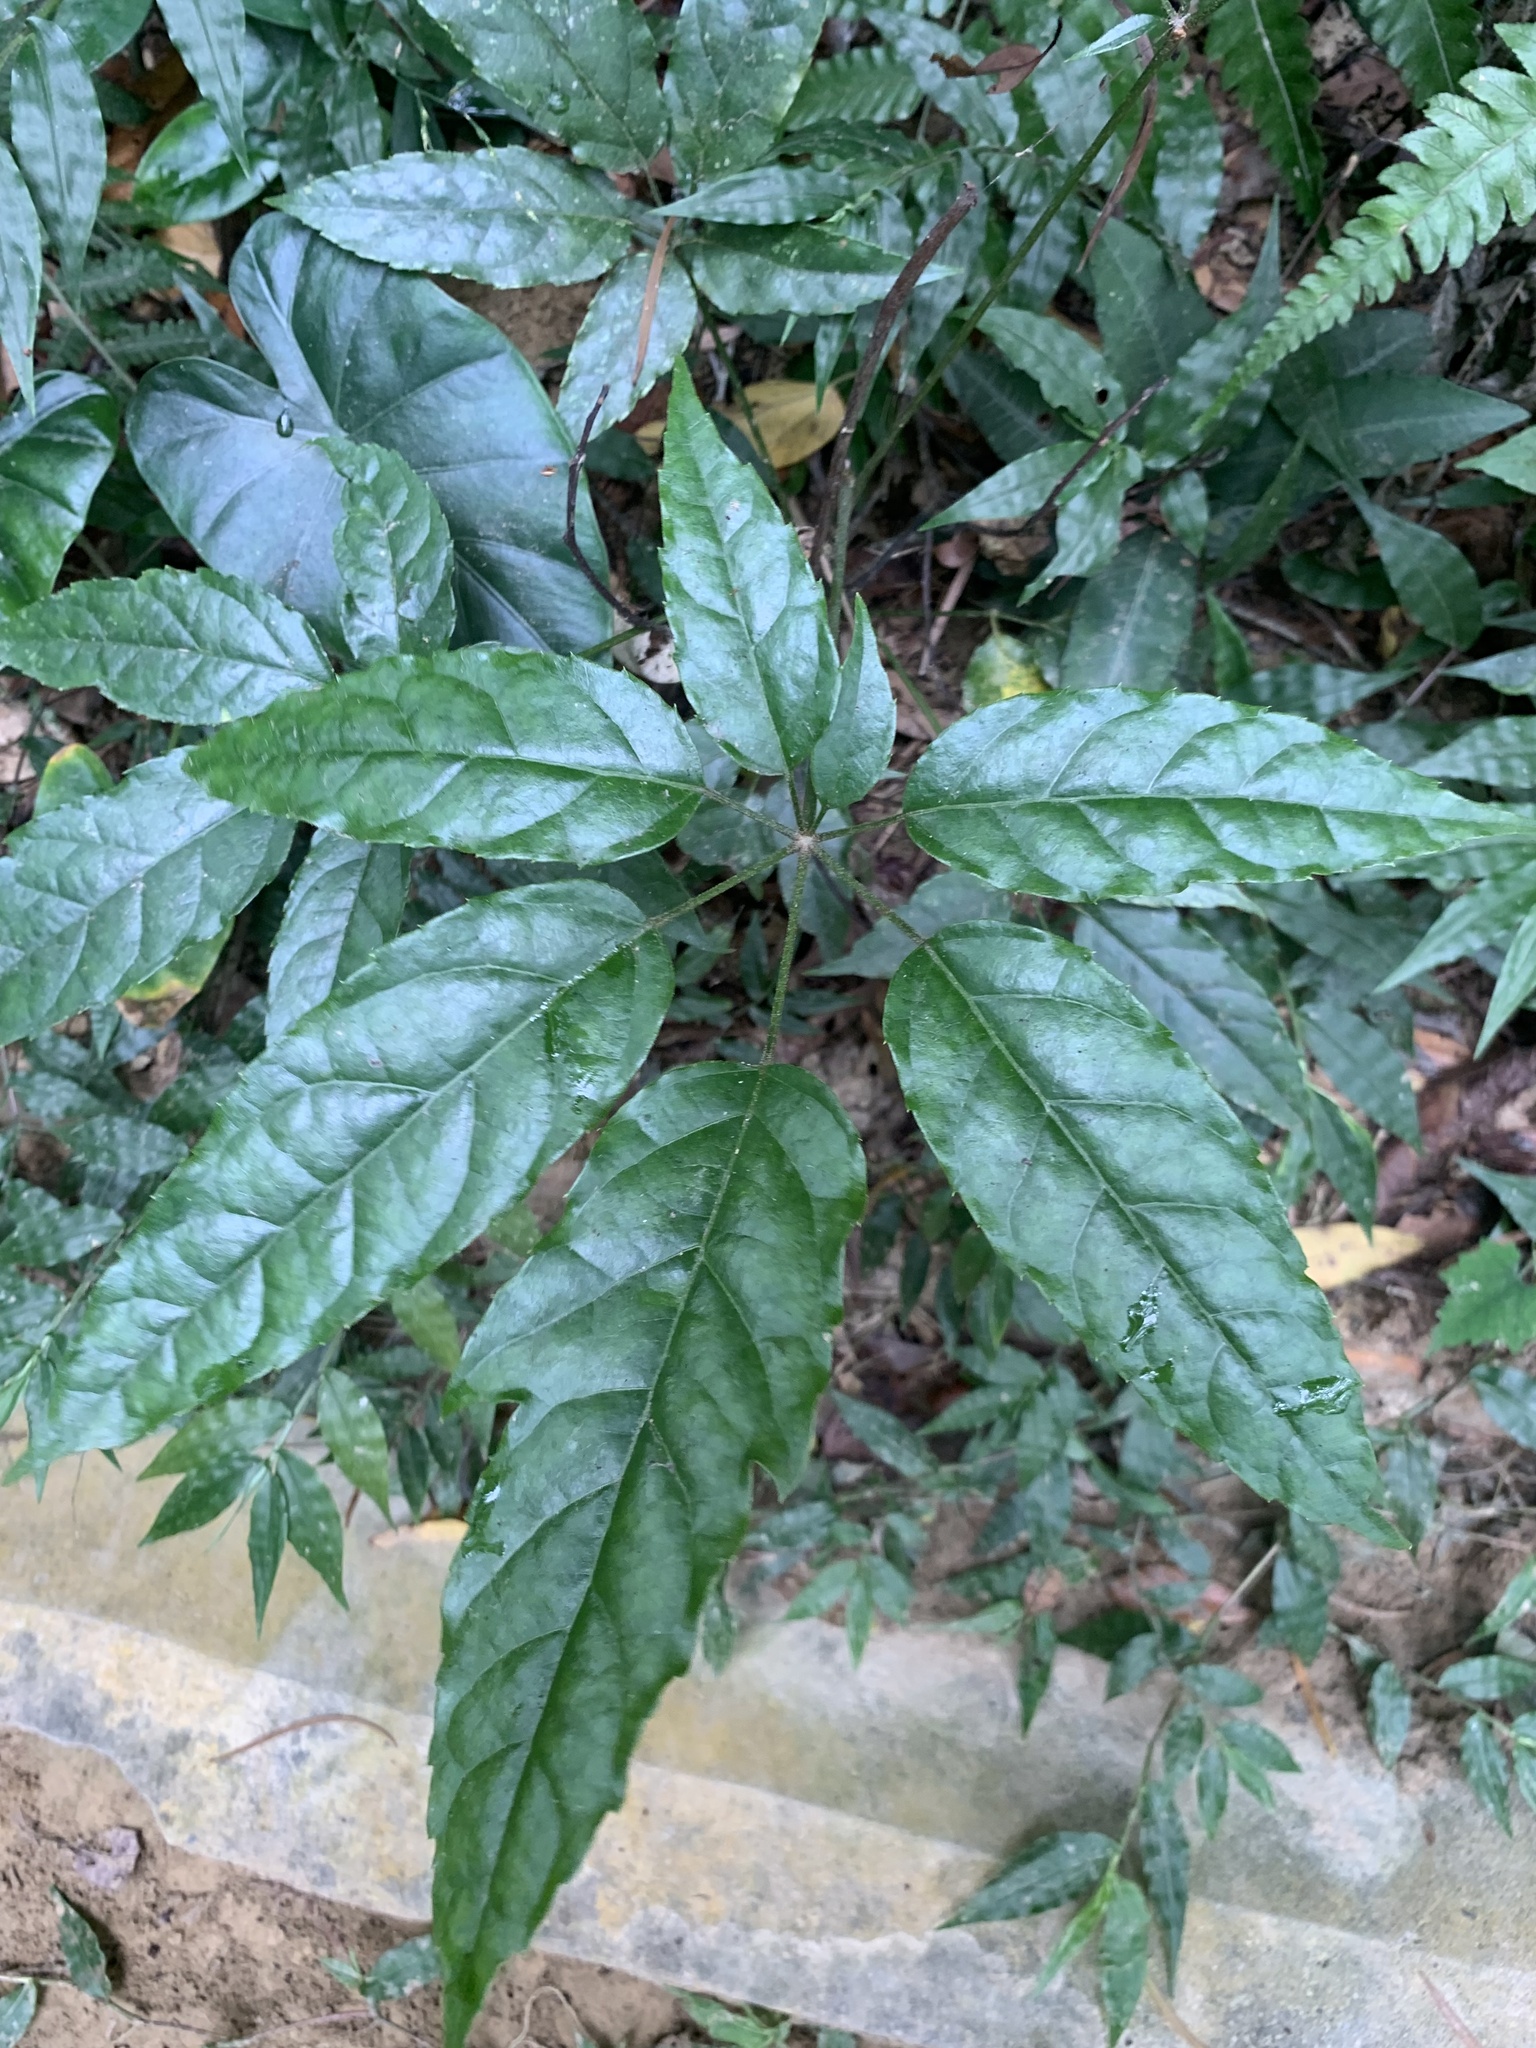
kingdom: Plantae
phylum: Tracheophyta
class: Magnoliopsida
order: Apiales
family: Araliaceae
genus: Heptapleurum
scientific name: Heptapleurum heptaphyllum
